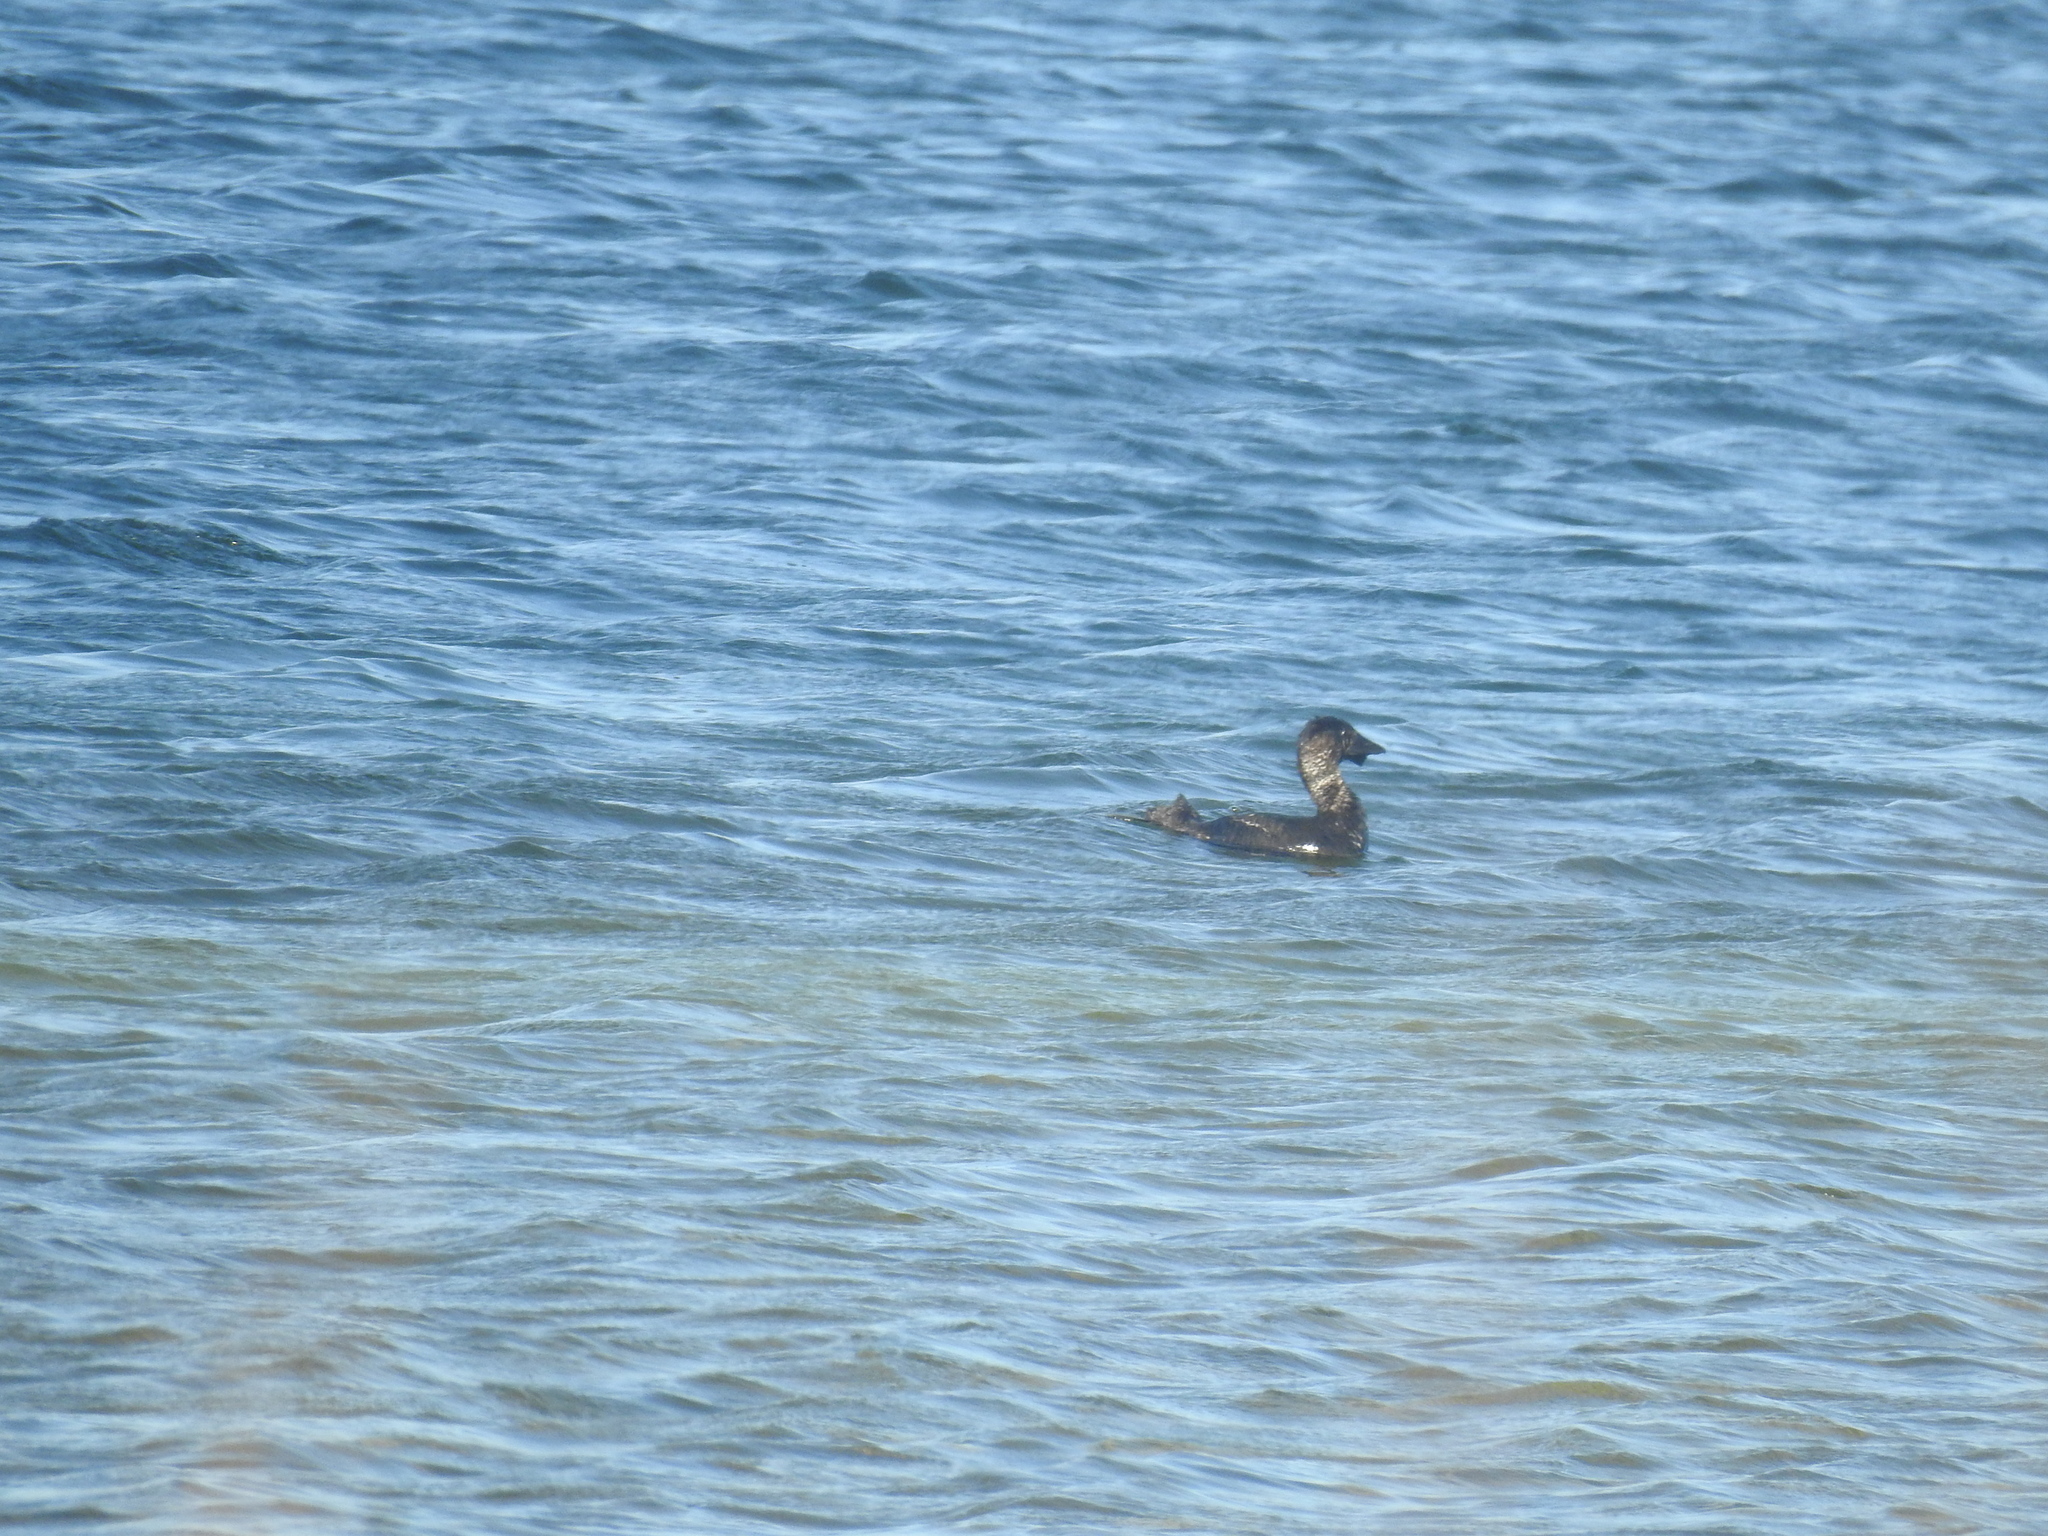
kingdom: Animalia
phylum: Chordata
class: Aves
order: Anseriformes
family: Anatidae
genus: Biziura
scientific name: Biziura lobata
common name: Musk duck
